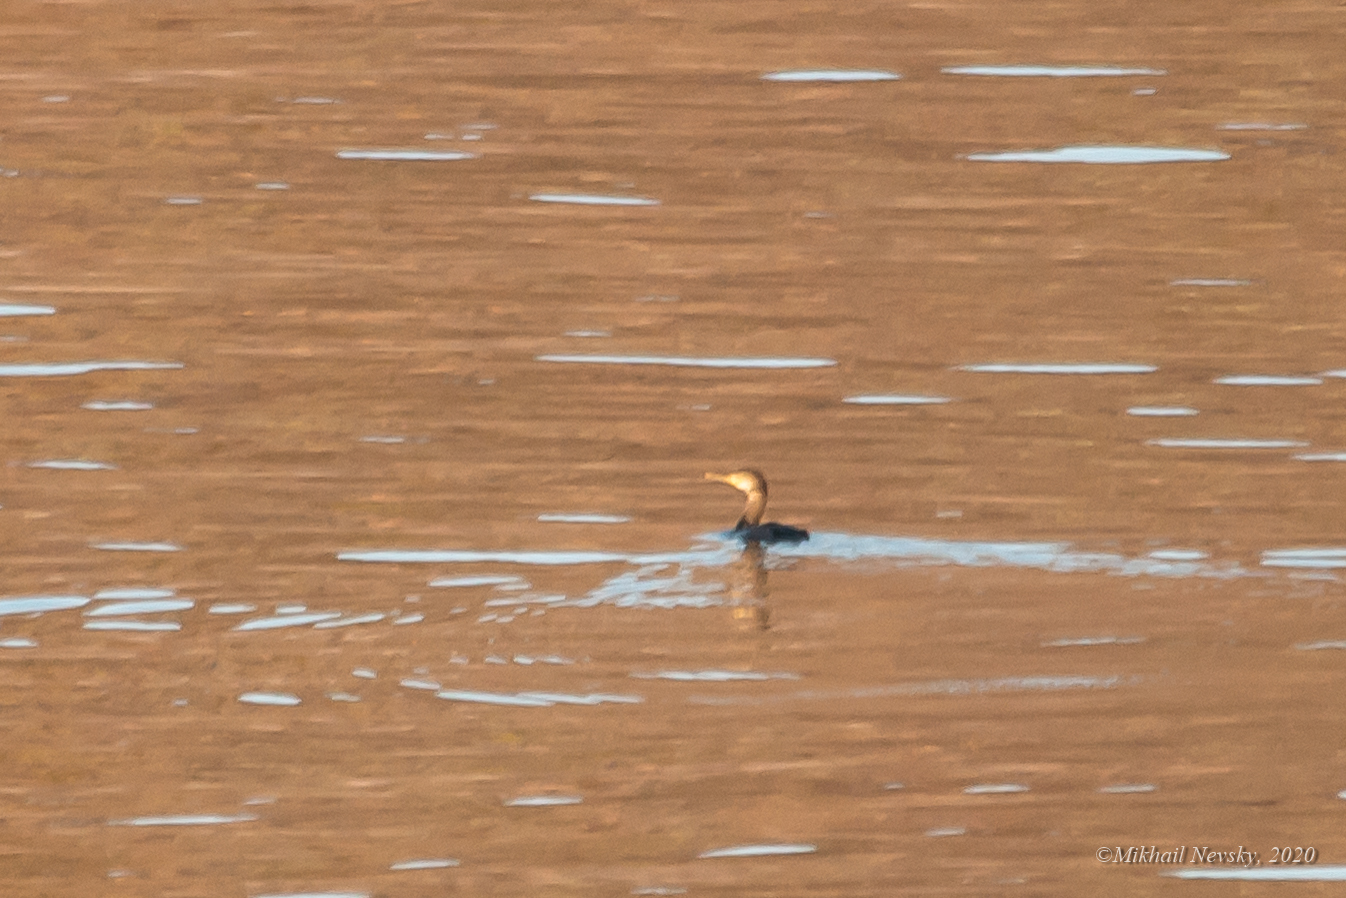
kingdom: Animalia
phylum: Chordata
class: Aves
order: Suliformes
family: Phalacrocoracidae
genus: Phalacrocorax
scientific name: Phalacrocorax carbo
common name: Great cormorant
